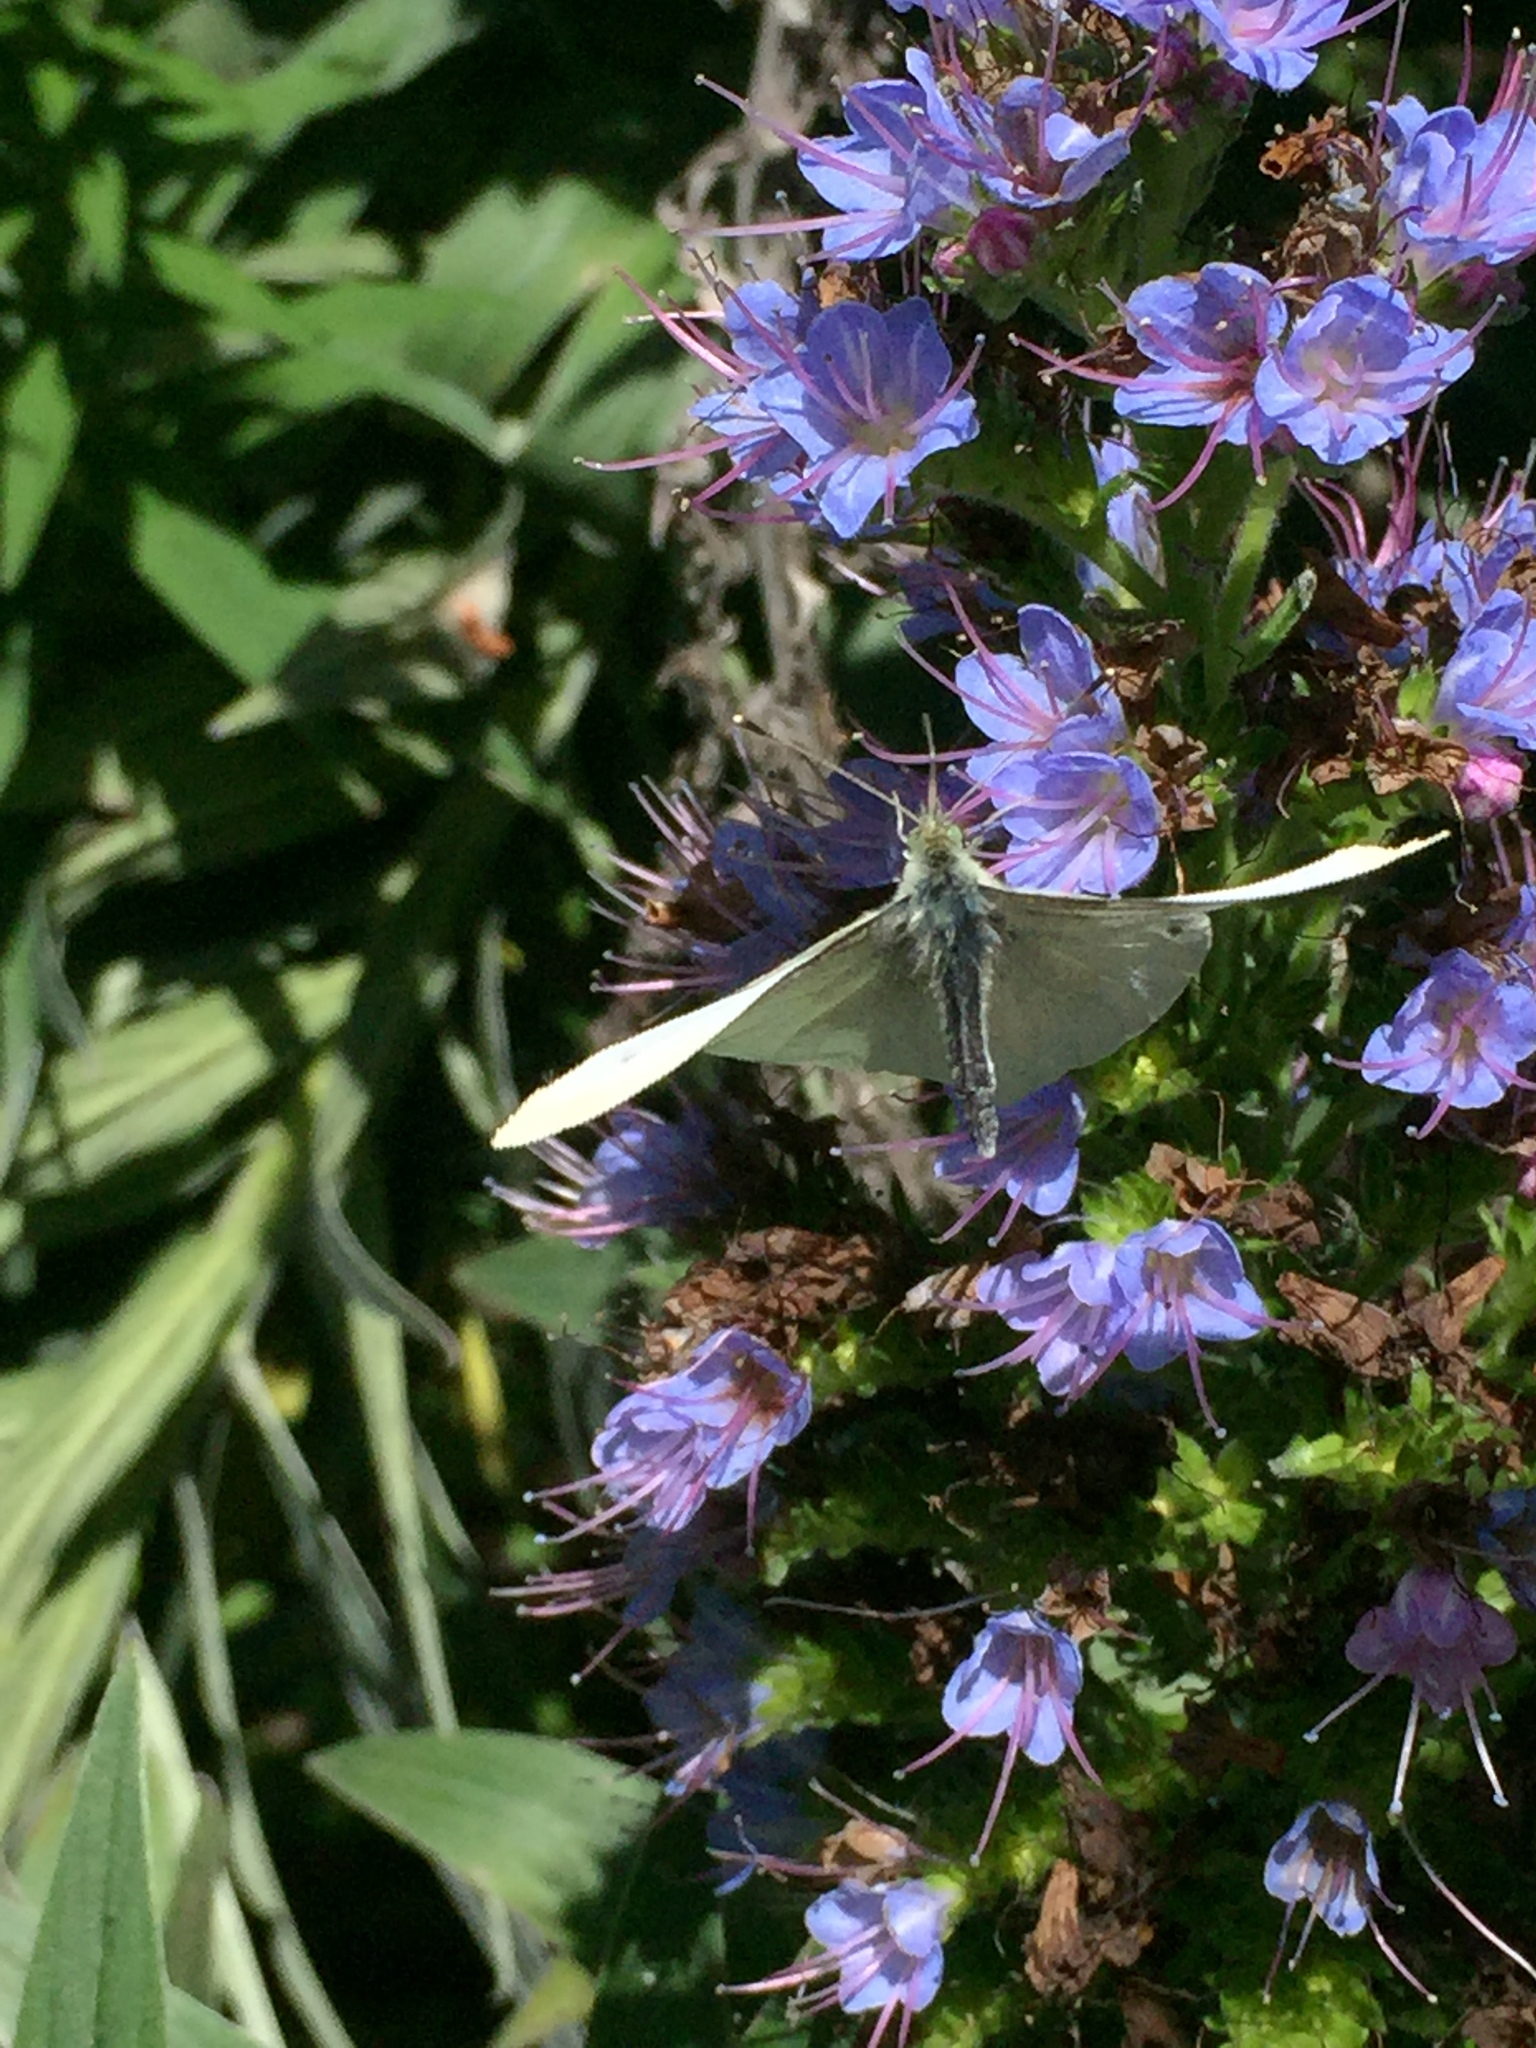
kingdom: Animalia
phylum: Arthropoda
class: Insecta
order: Lepidoptera
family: Pieridae
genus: Pieris
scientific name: Pieris rapae
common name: Small white
